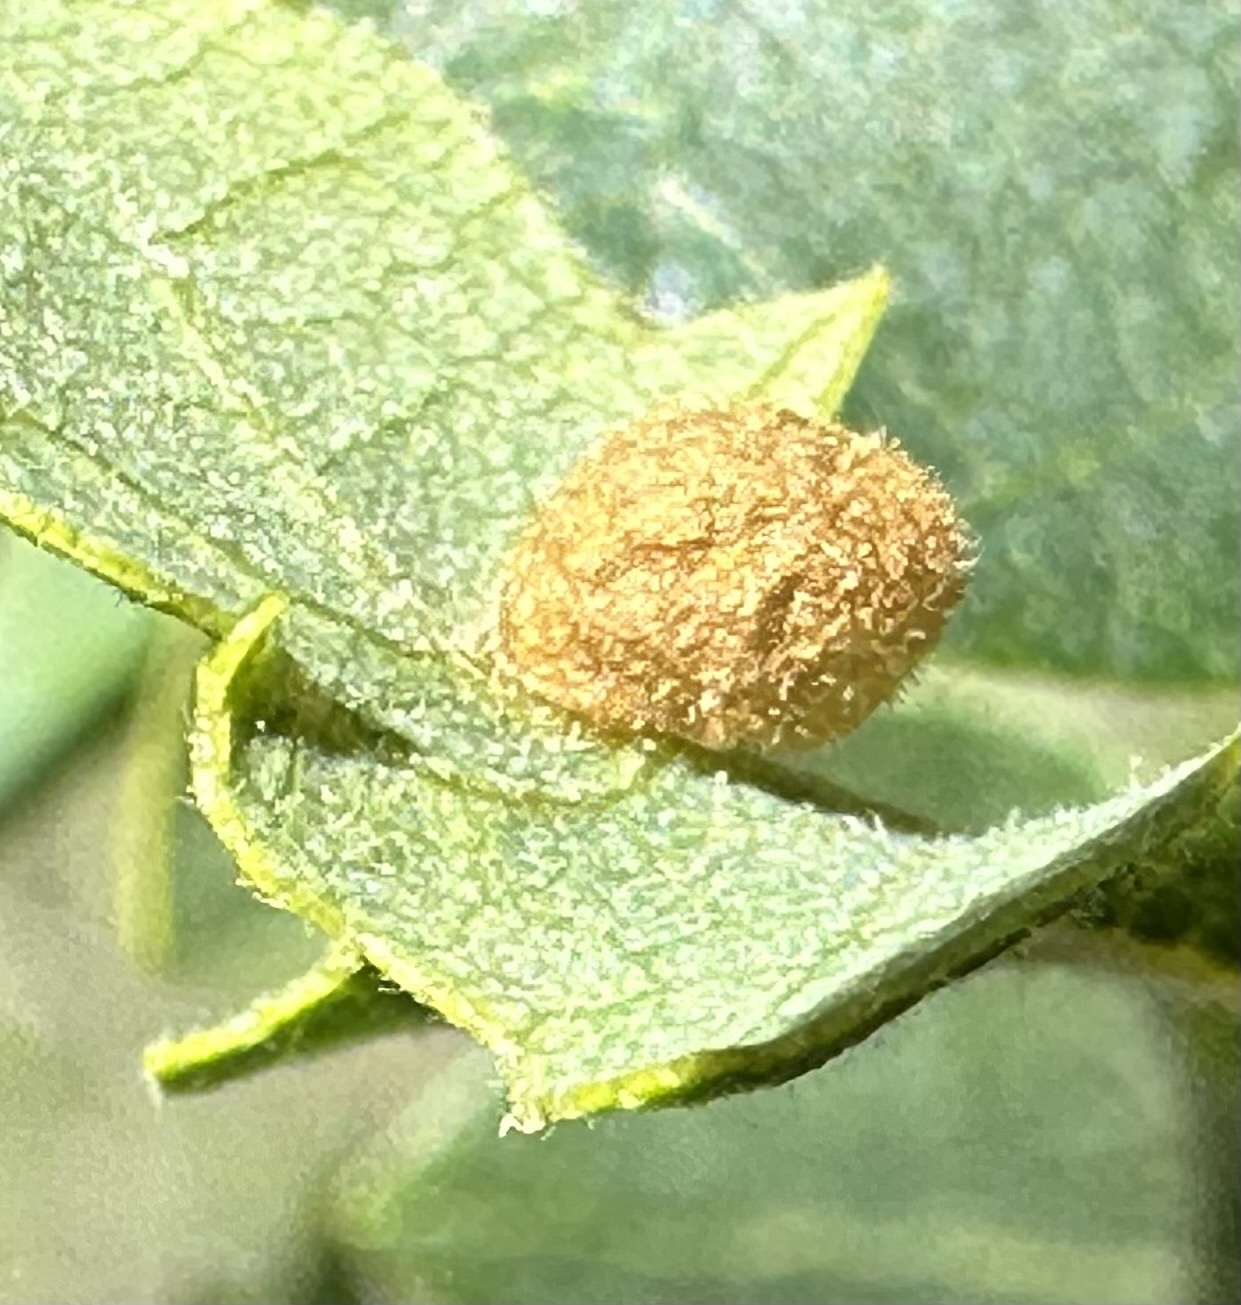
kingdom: Animalia
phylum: Arthropoda
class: Insecta
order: Hymenoptera
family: Cynipidae
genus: Andricus
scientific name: Andricus
